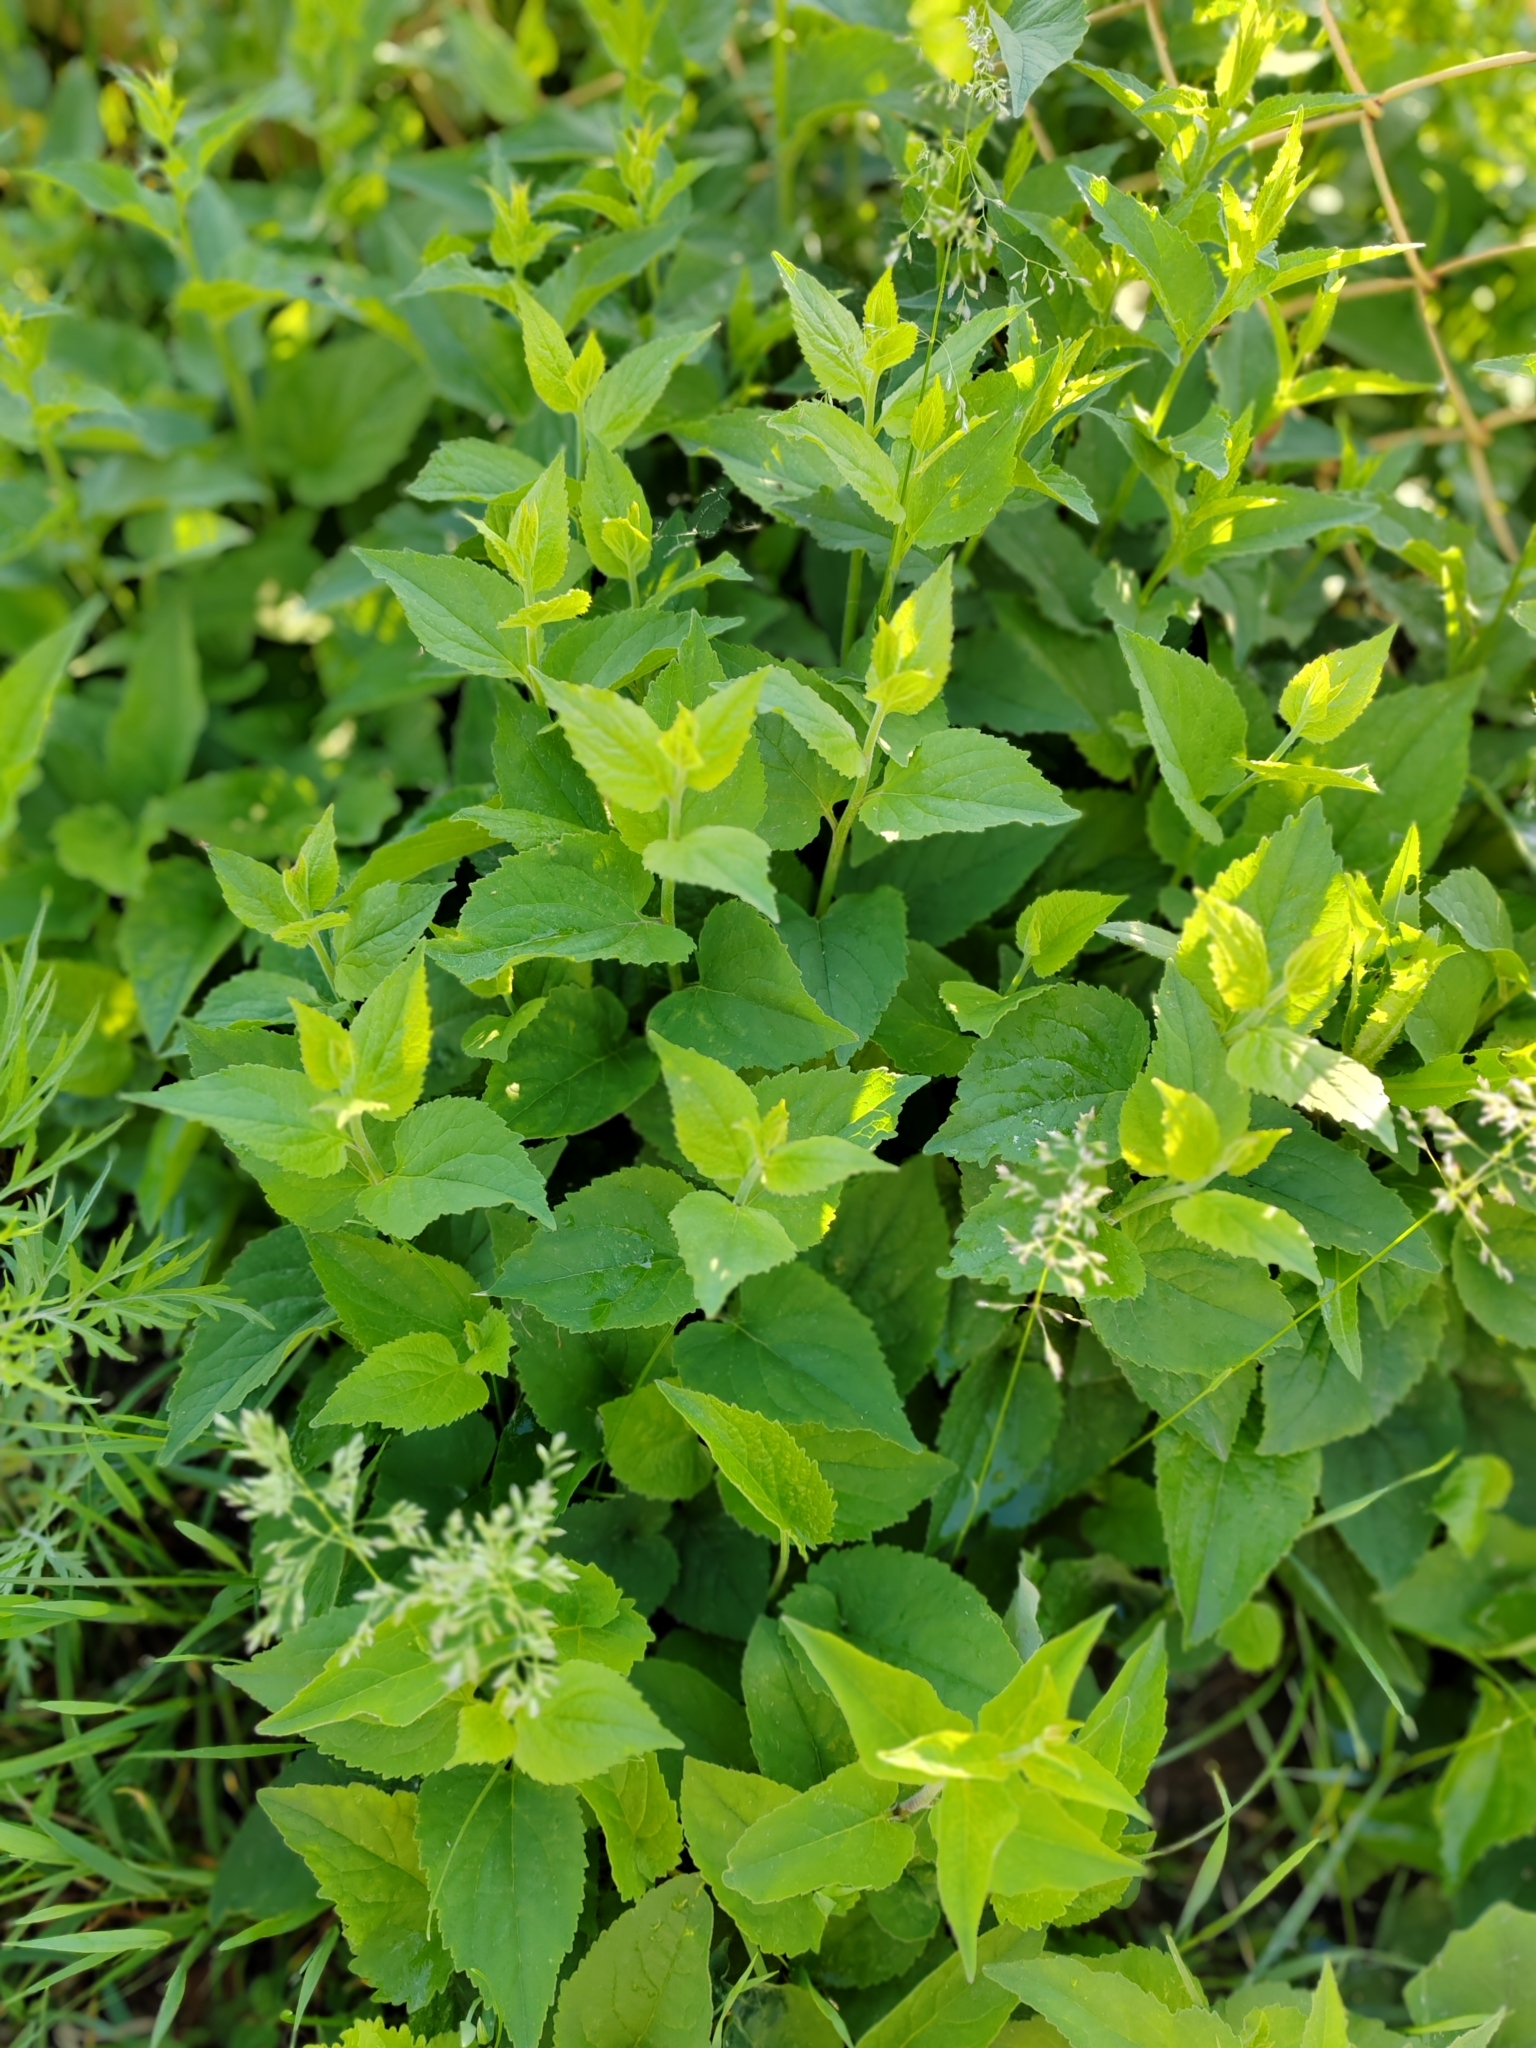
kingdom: Plantae
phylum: Tracheophyta
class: Magnoliopsida
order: Asterales
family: Campanulaceae
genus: Campanula
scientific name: Campanula rapunculoides
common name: Creeping bellflower
